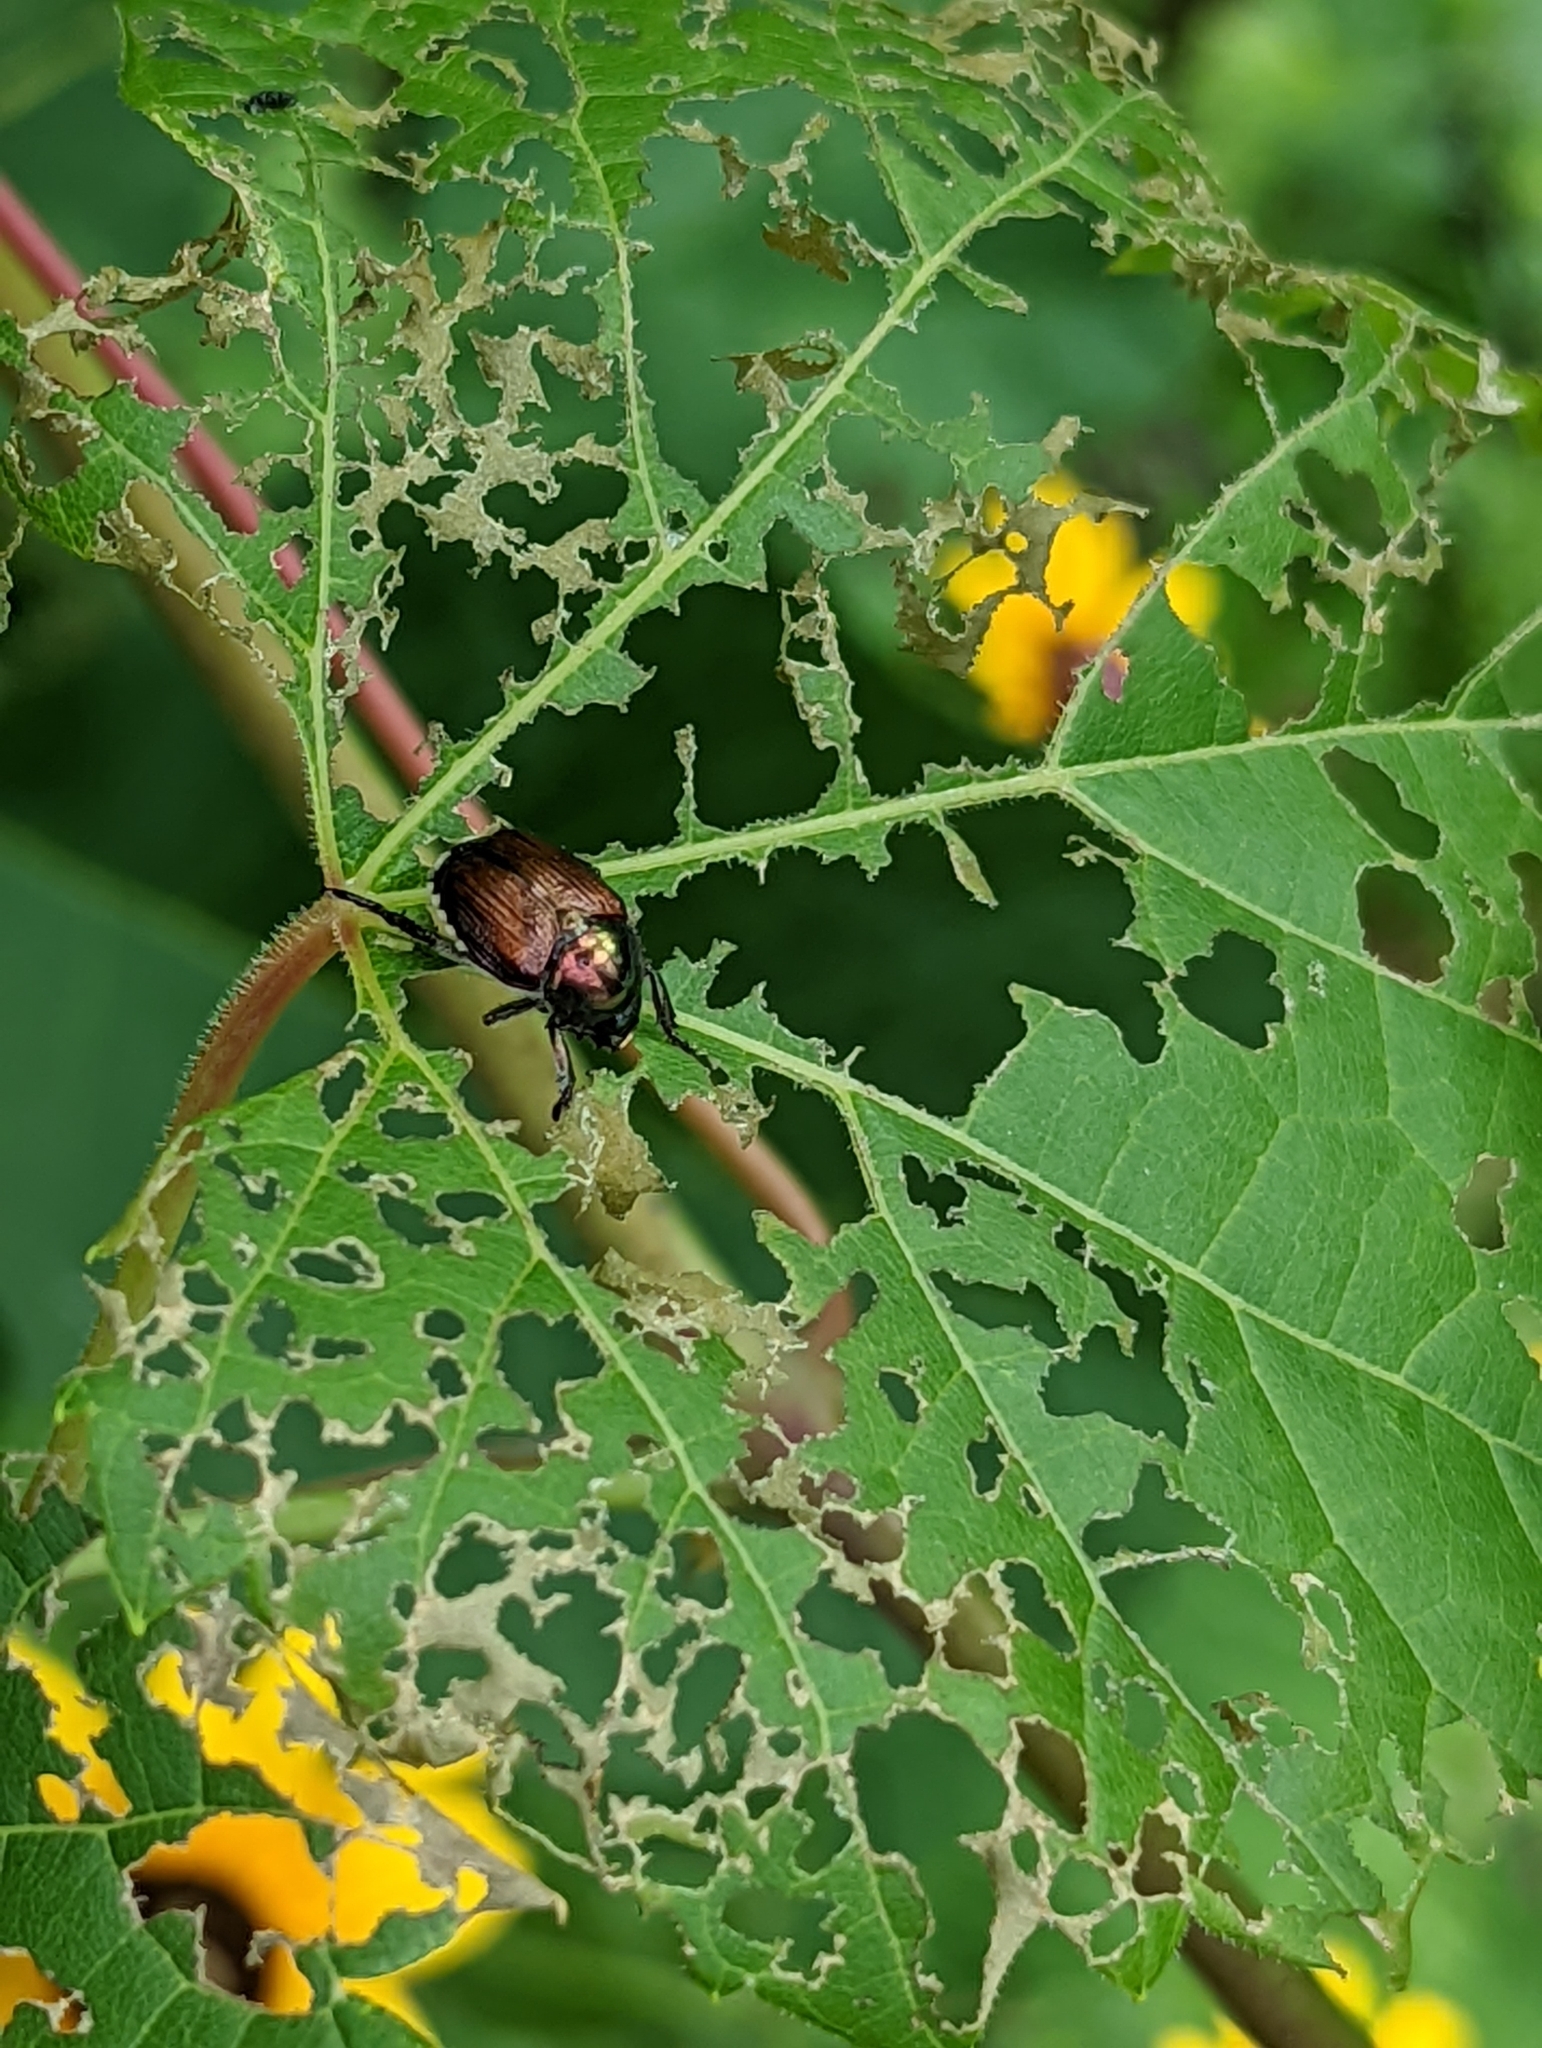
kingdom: Animalia
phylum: Arthropoda
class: Insecta
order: Coleoptera
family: Scarabaeidae
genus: Popillia
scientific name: Popillia japonica
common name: Japanese beetle
